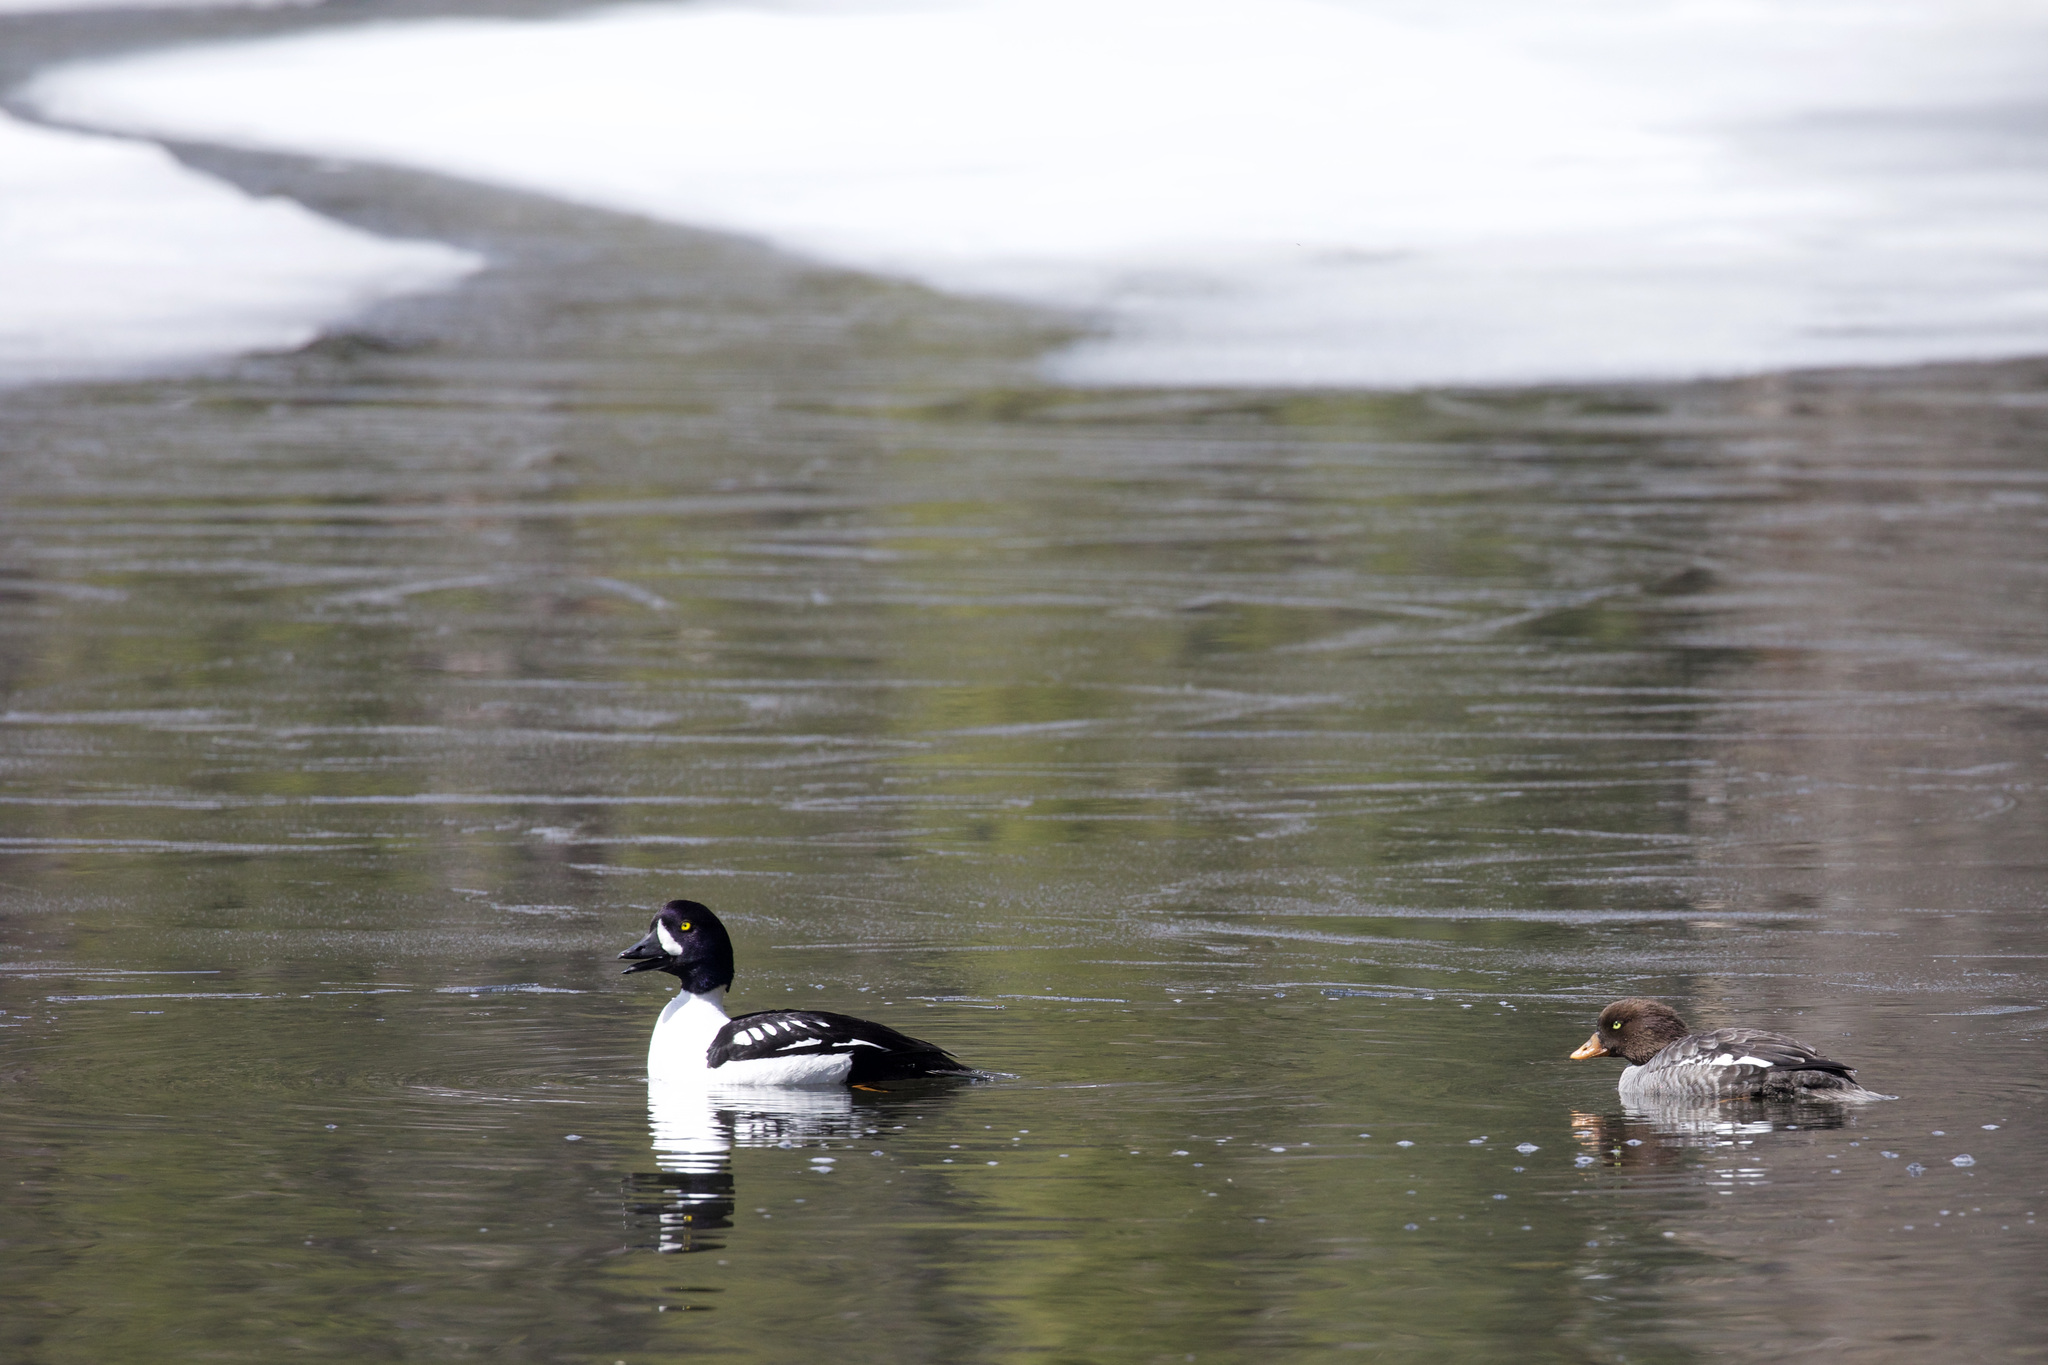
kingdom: Animalia
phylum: Chordata
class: Aves
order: Anseriformes
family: Anatidae
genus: Bucephala
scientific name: Bucephala islandica
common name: Barrow's goldeneye
